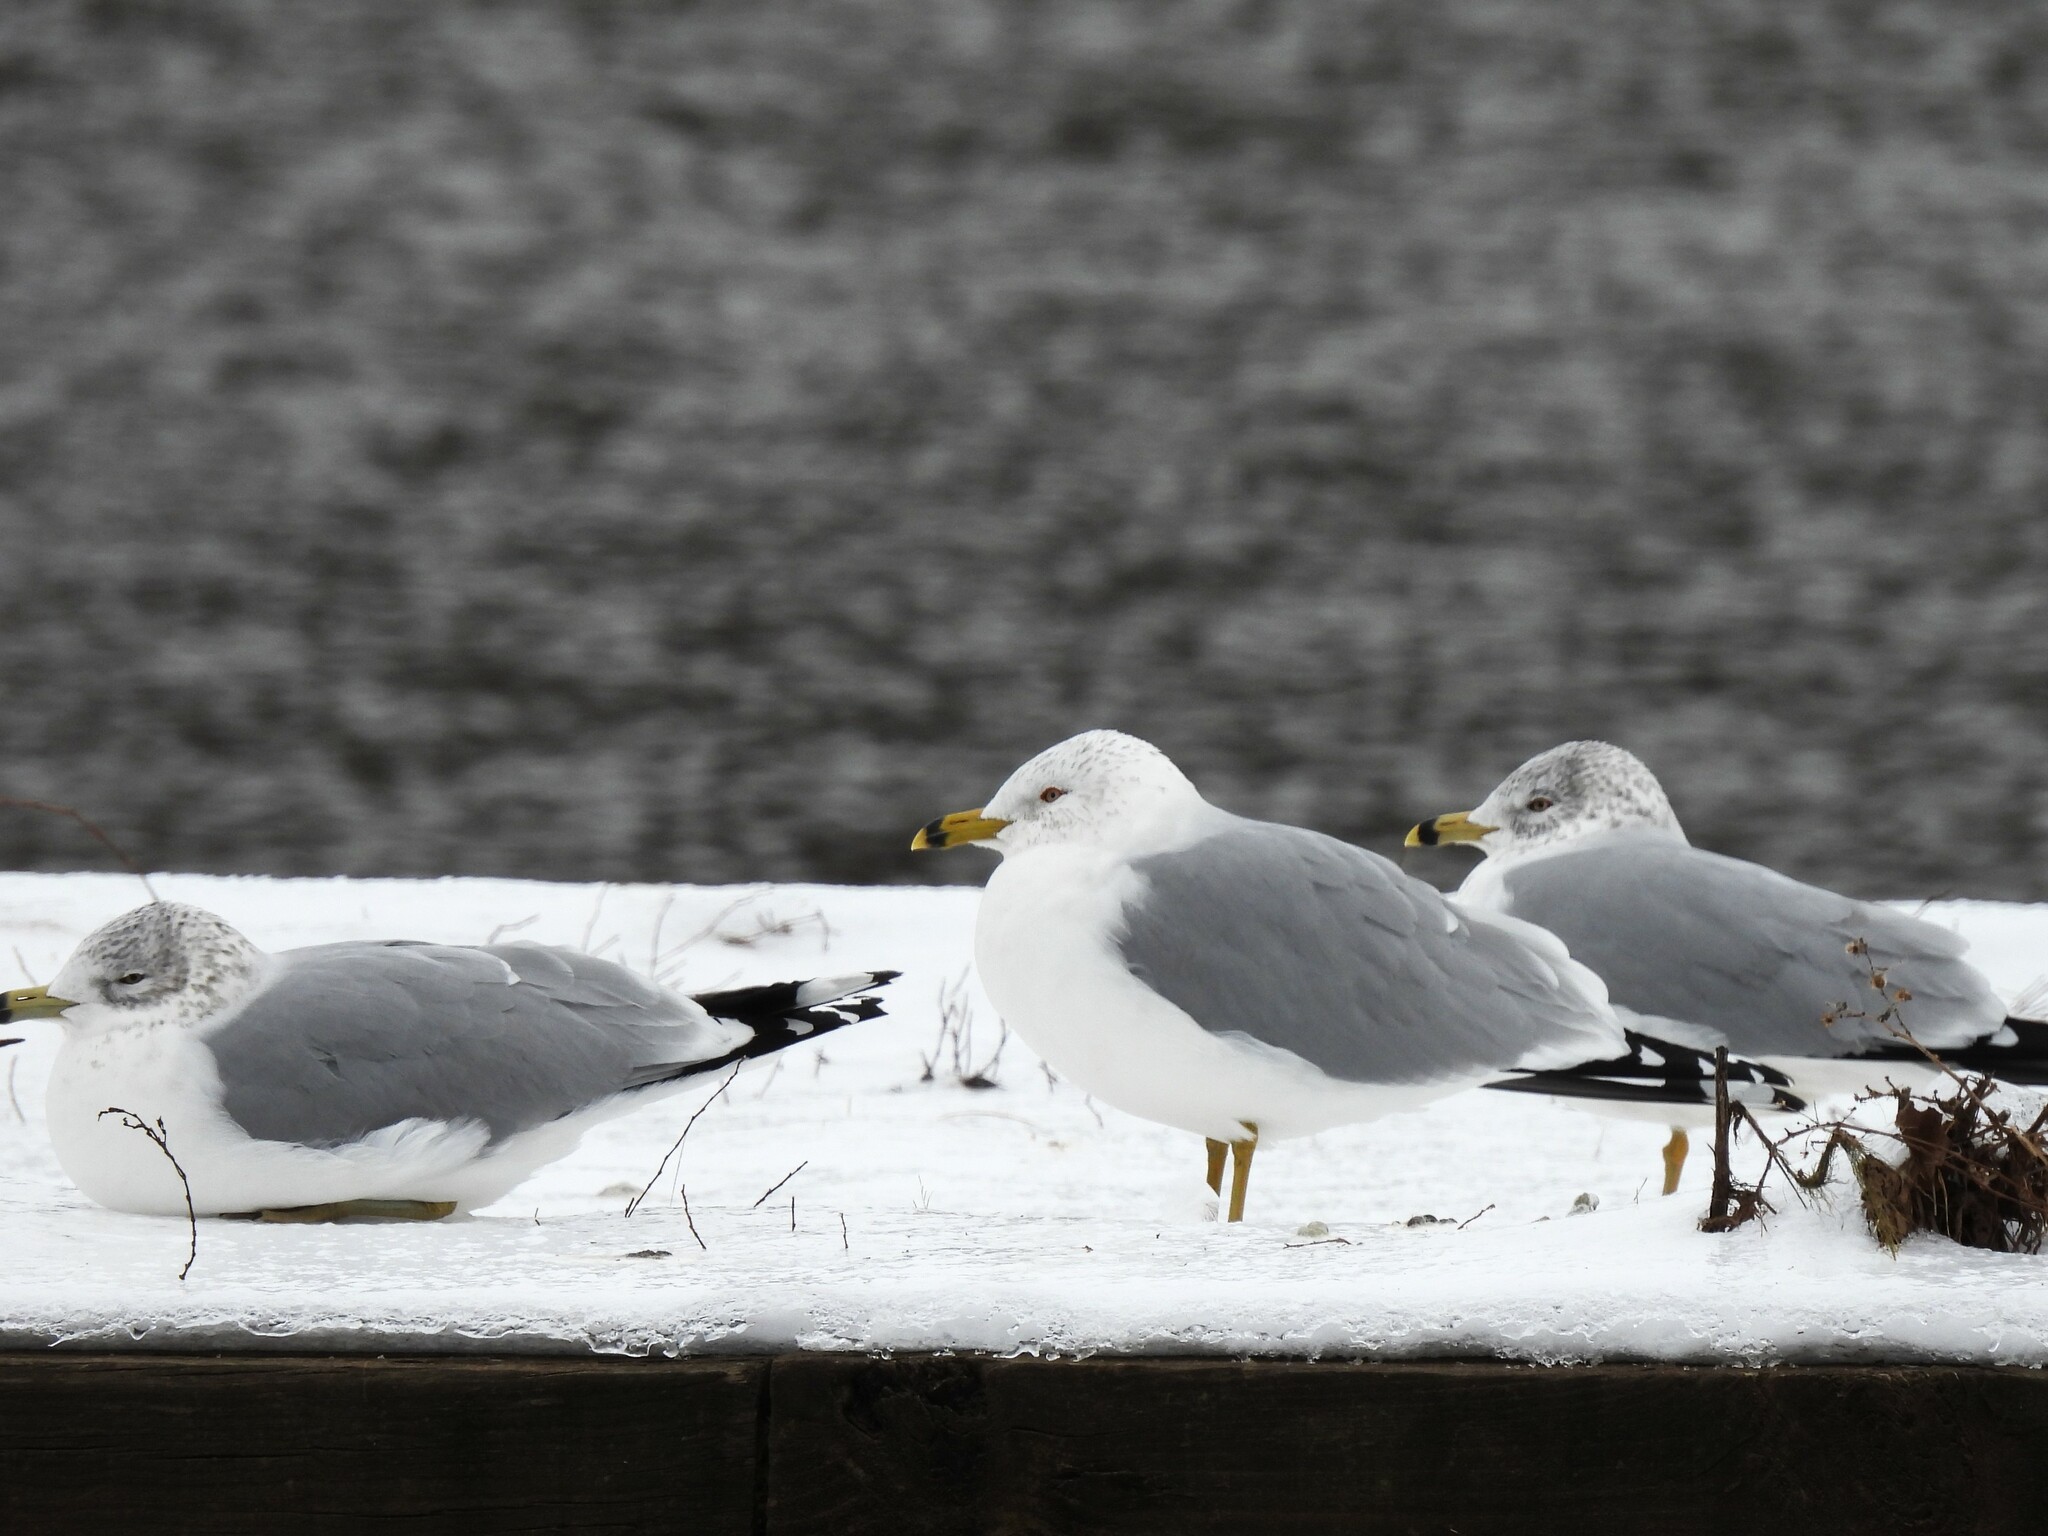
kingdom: Animalia
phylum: Chordata
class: Aves
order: Charadriiformes
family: Laridae
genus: Larus
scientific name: Larus delawarensis
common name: Ring-billed gull
